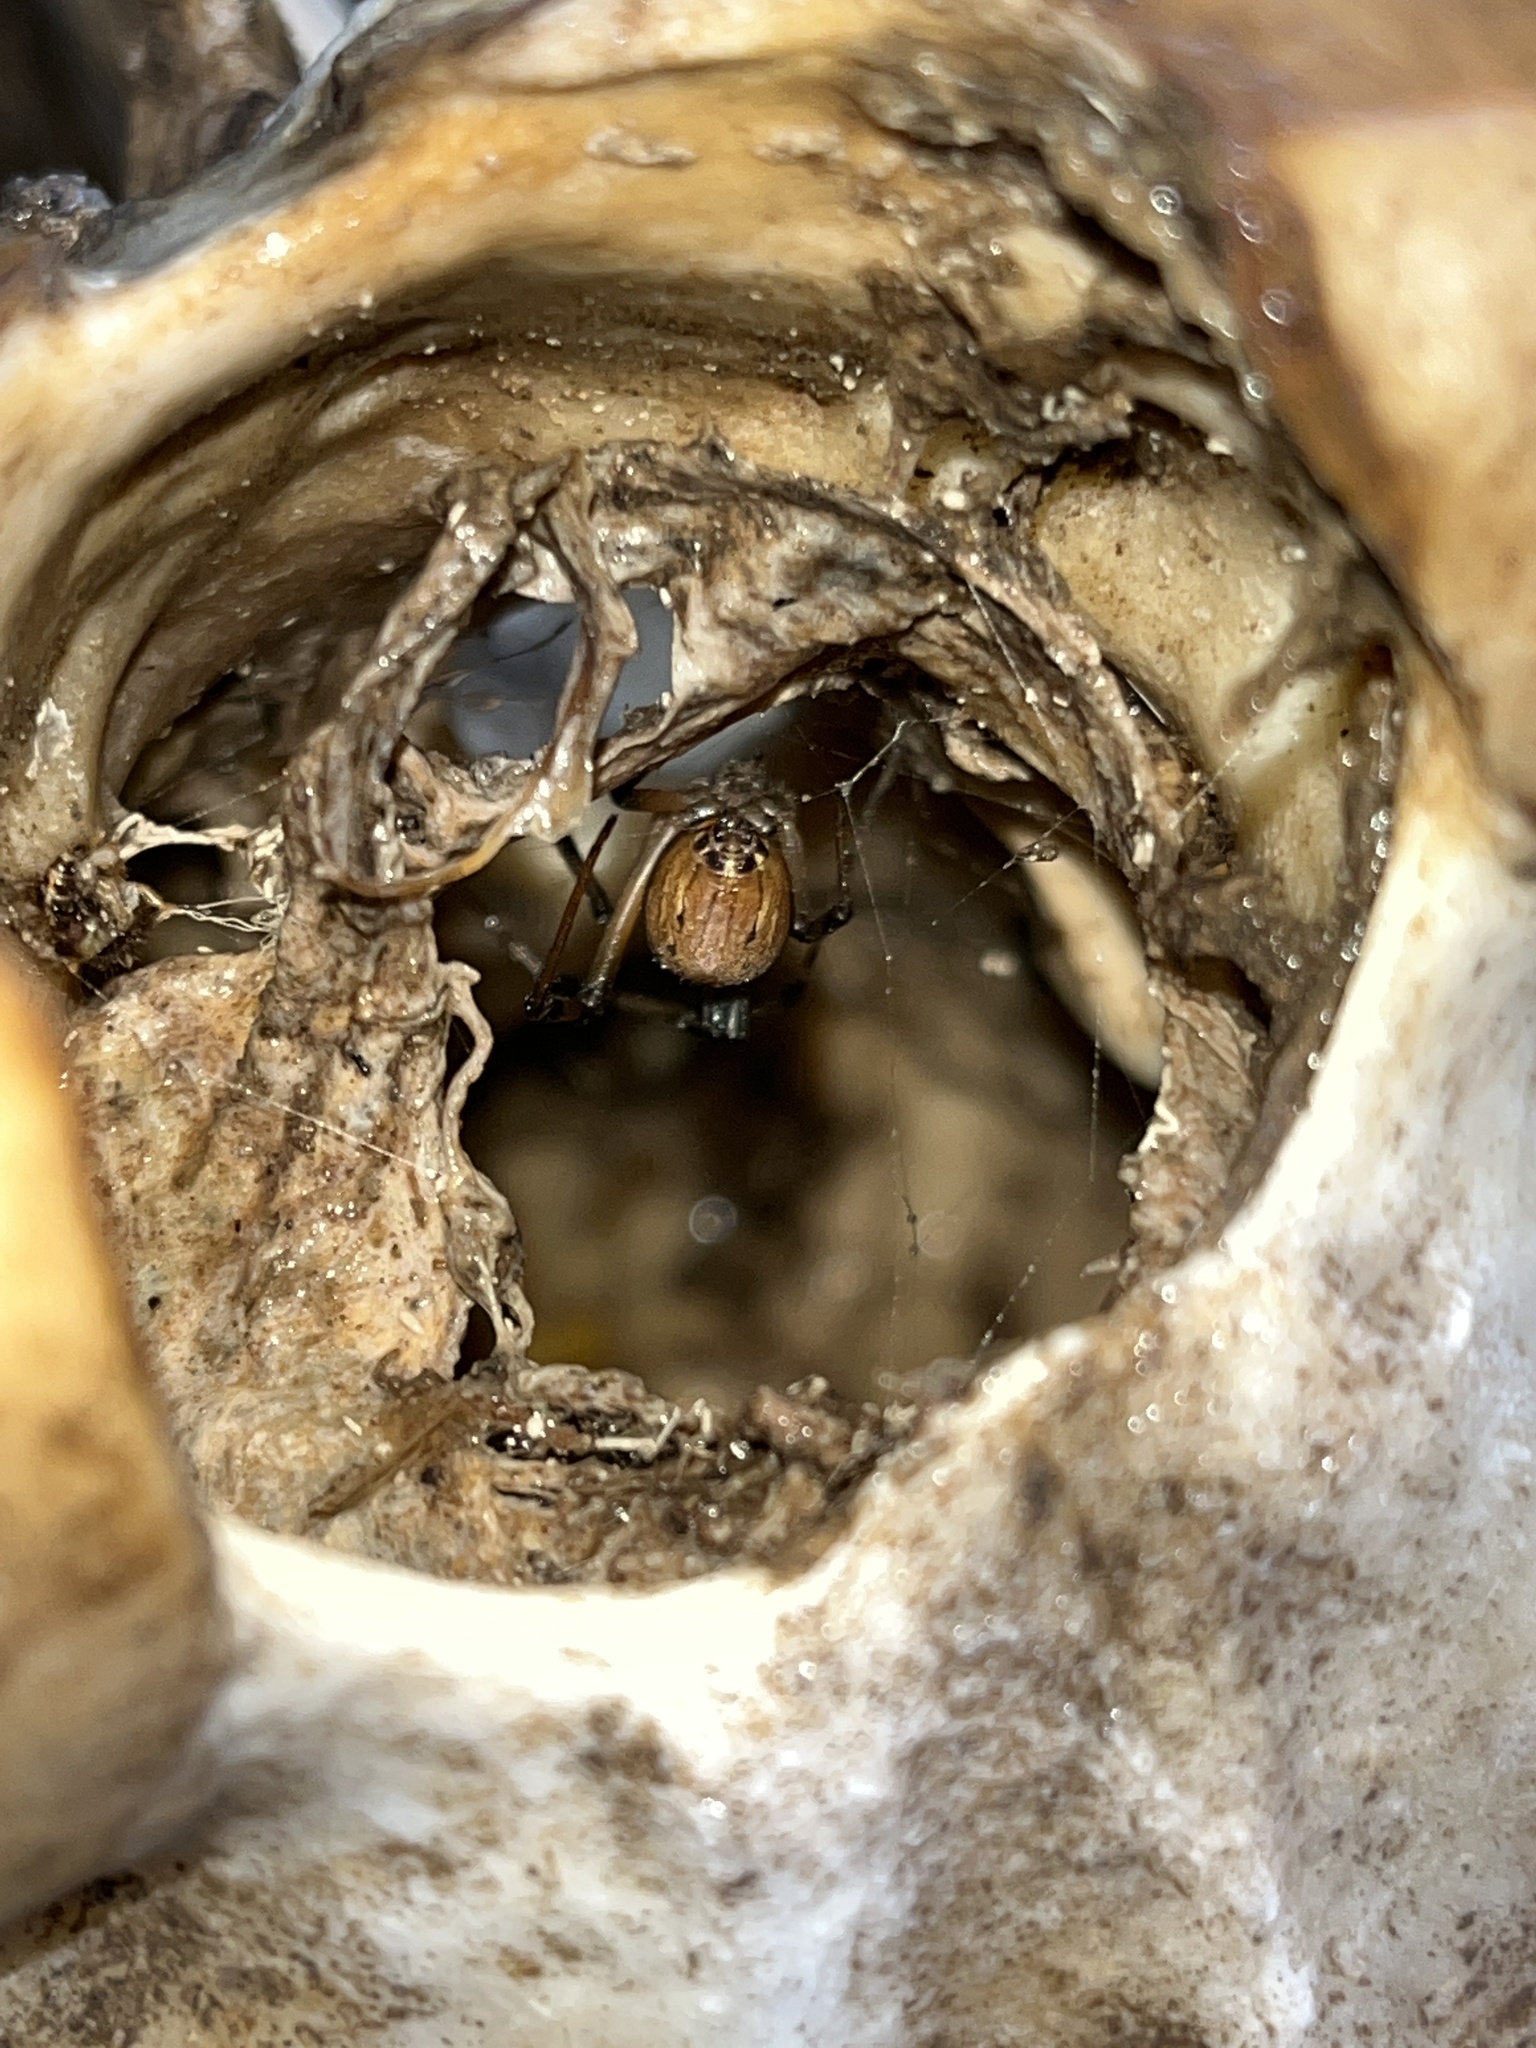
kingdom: Animalia
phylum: Arthropoda
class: Arachnida
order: Araneae
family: Theridiidae
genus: Latrodectus
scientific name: Latrodectus geometricus
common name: Brown widow spider
